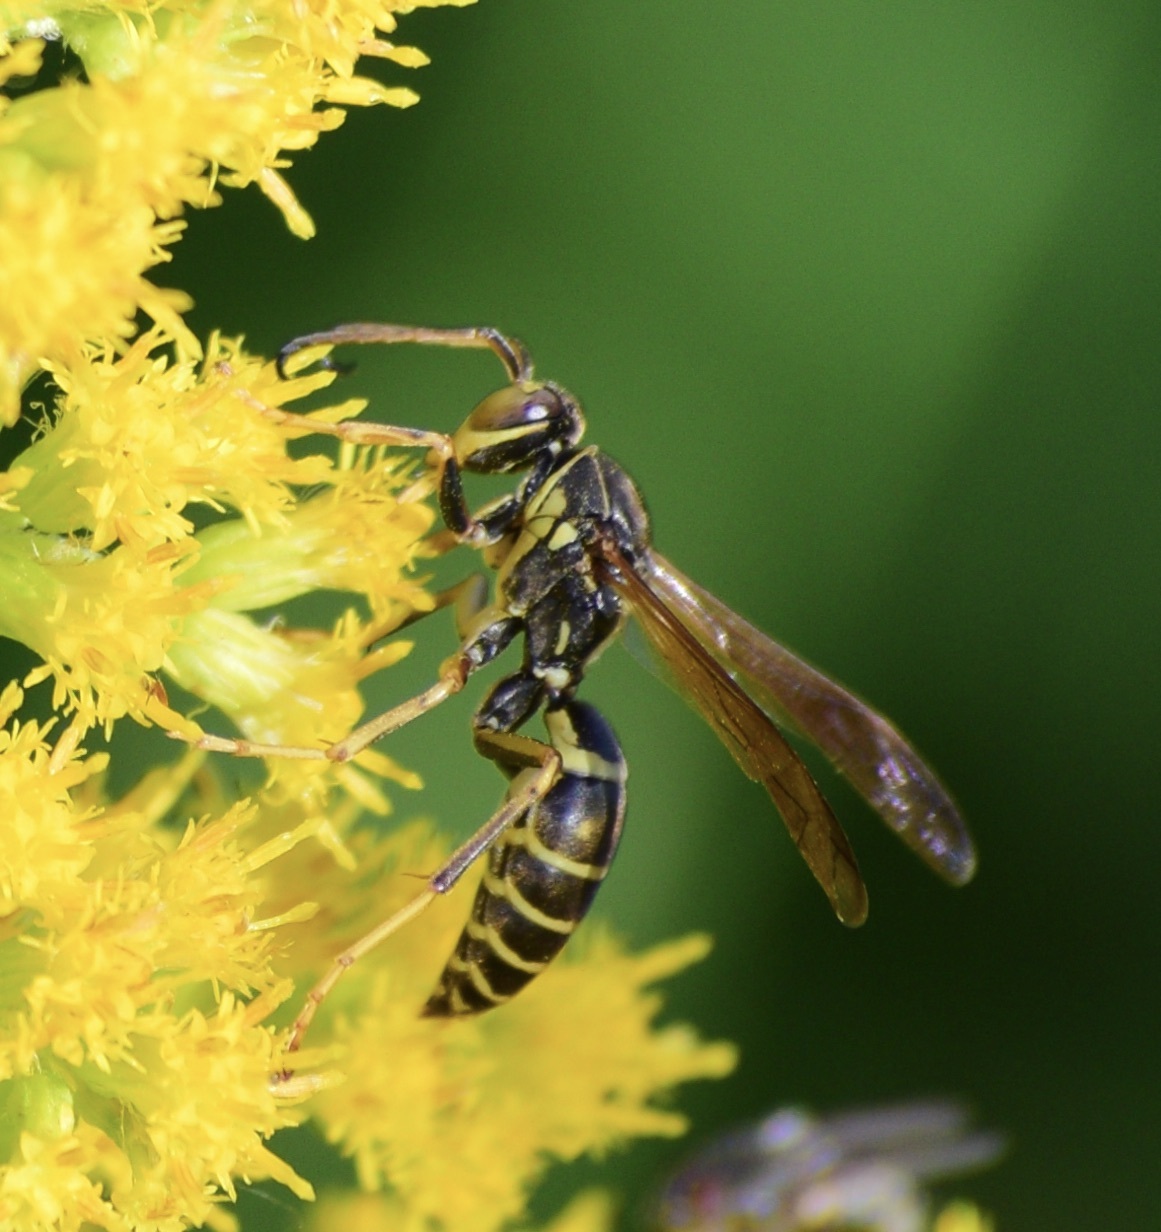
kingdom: Animalia
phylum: Arthropoda
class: Insecta
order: Hymenoptera
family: Eumenidae
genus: Polistes
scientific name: Polistes fuscatus
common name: Dark paper wasp
